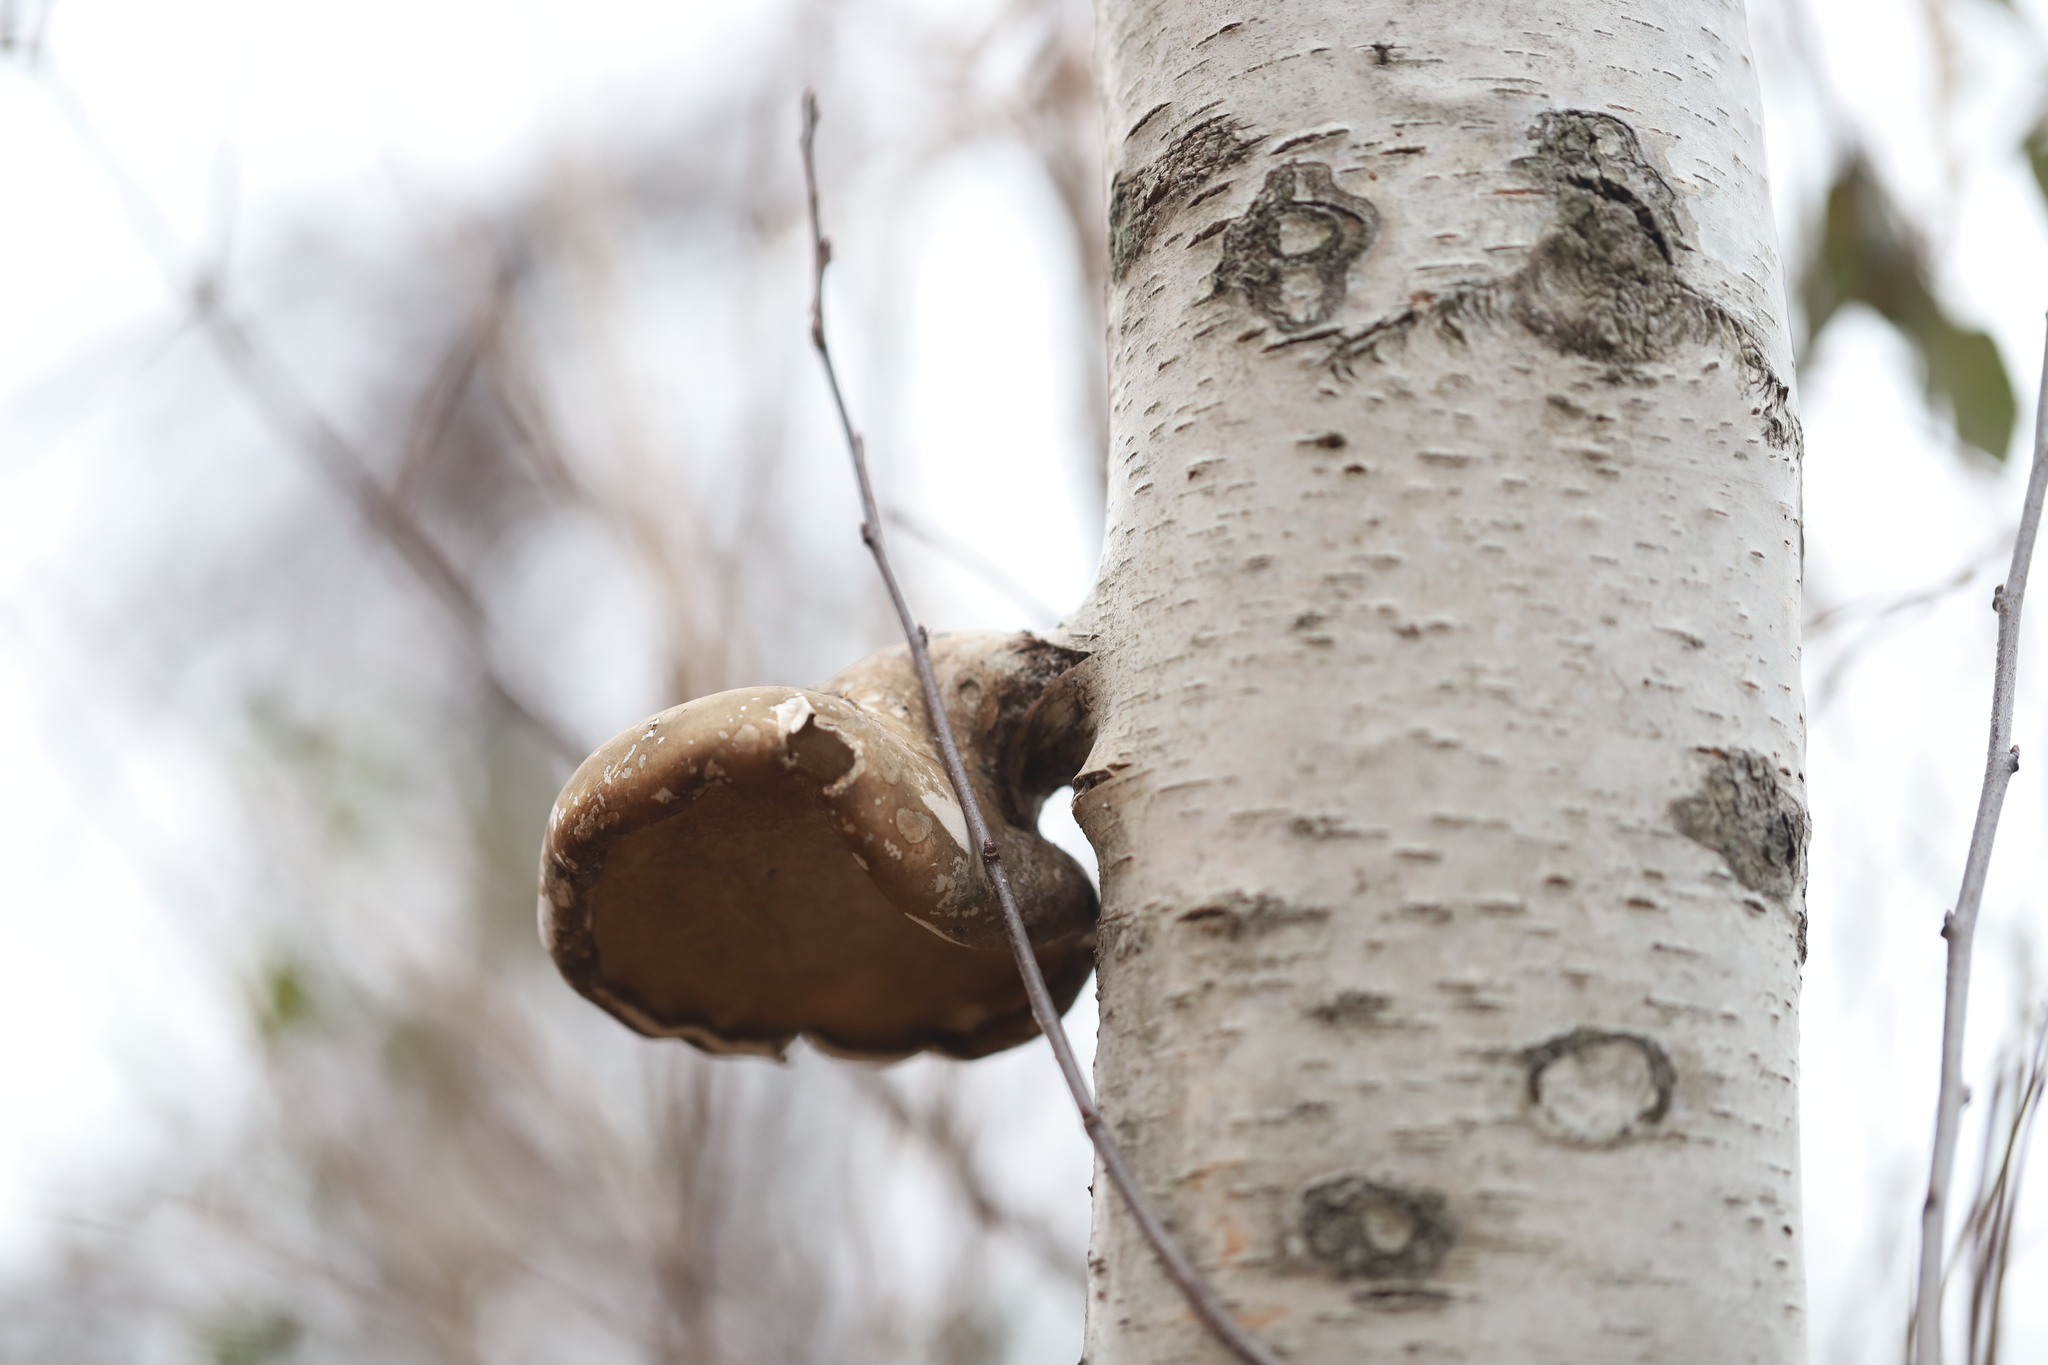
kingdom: Fungi
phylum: Basidiomycota
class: Agaricomycetes
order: Polyporales
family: Fomitopsidaceae
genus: Fomitopsis
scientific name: Fomitopsis betulina
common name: Birch polypore
